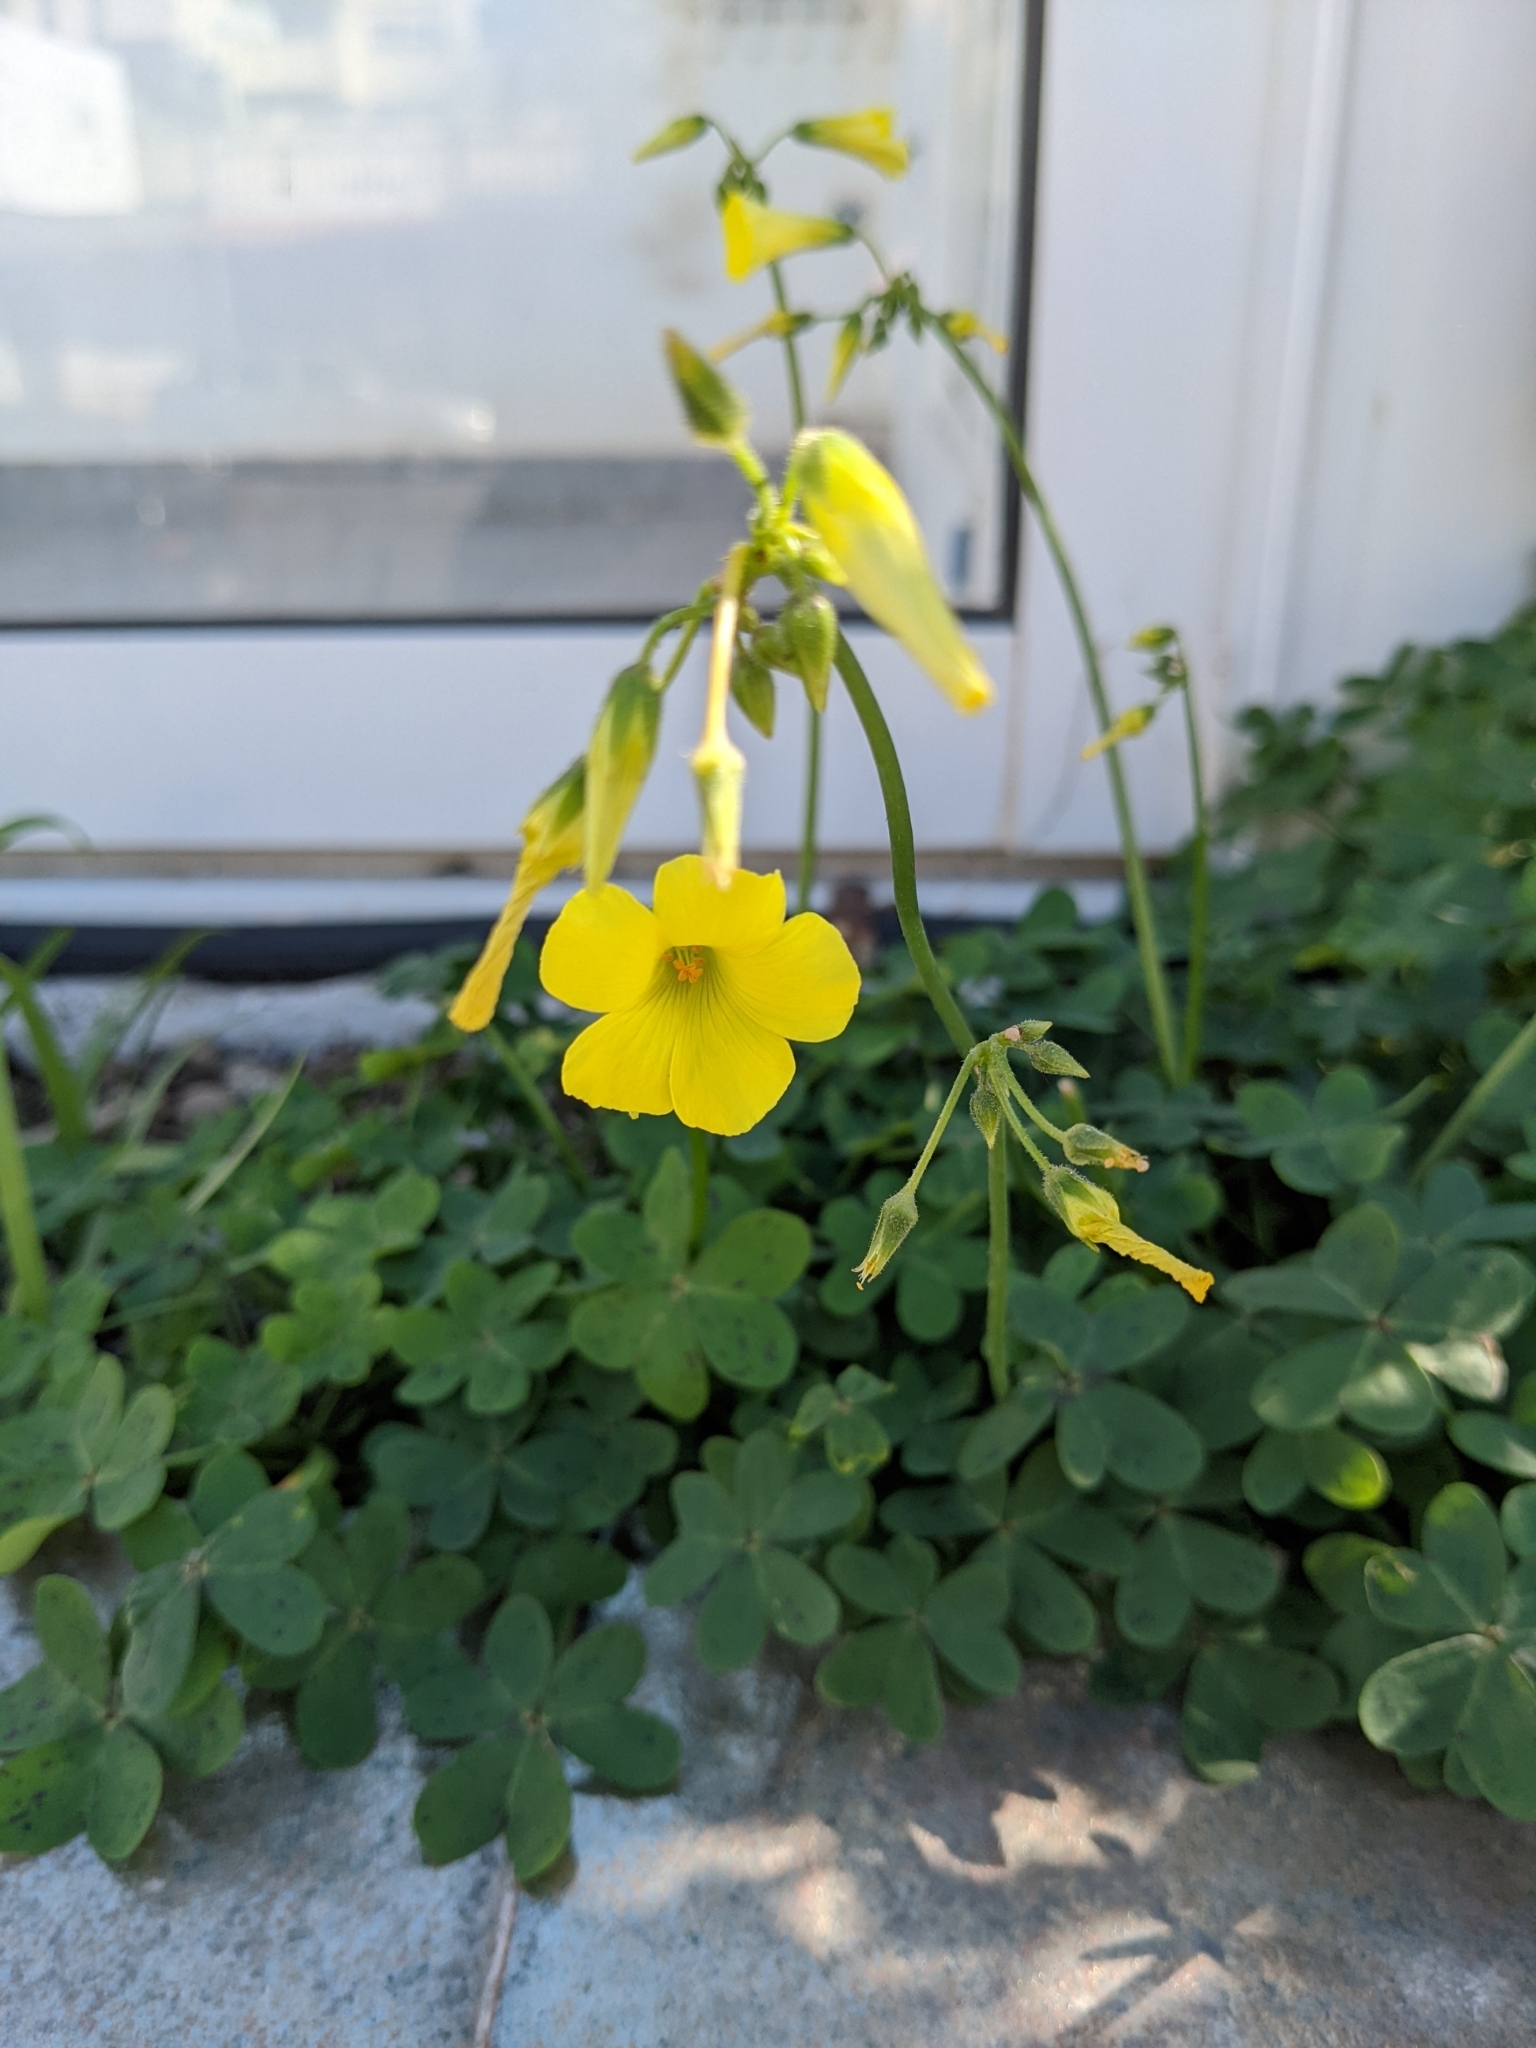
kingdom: Plantae
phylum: Tracheophyta
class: Magnoliopsida
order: Oxalidales
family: Oxalidaceae
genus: Oxalis
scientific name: Oxalis pes-caprae
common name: Bermuda-buttercup
